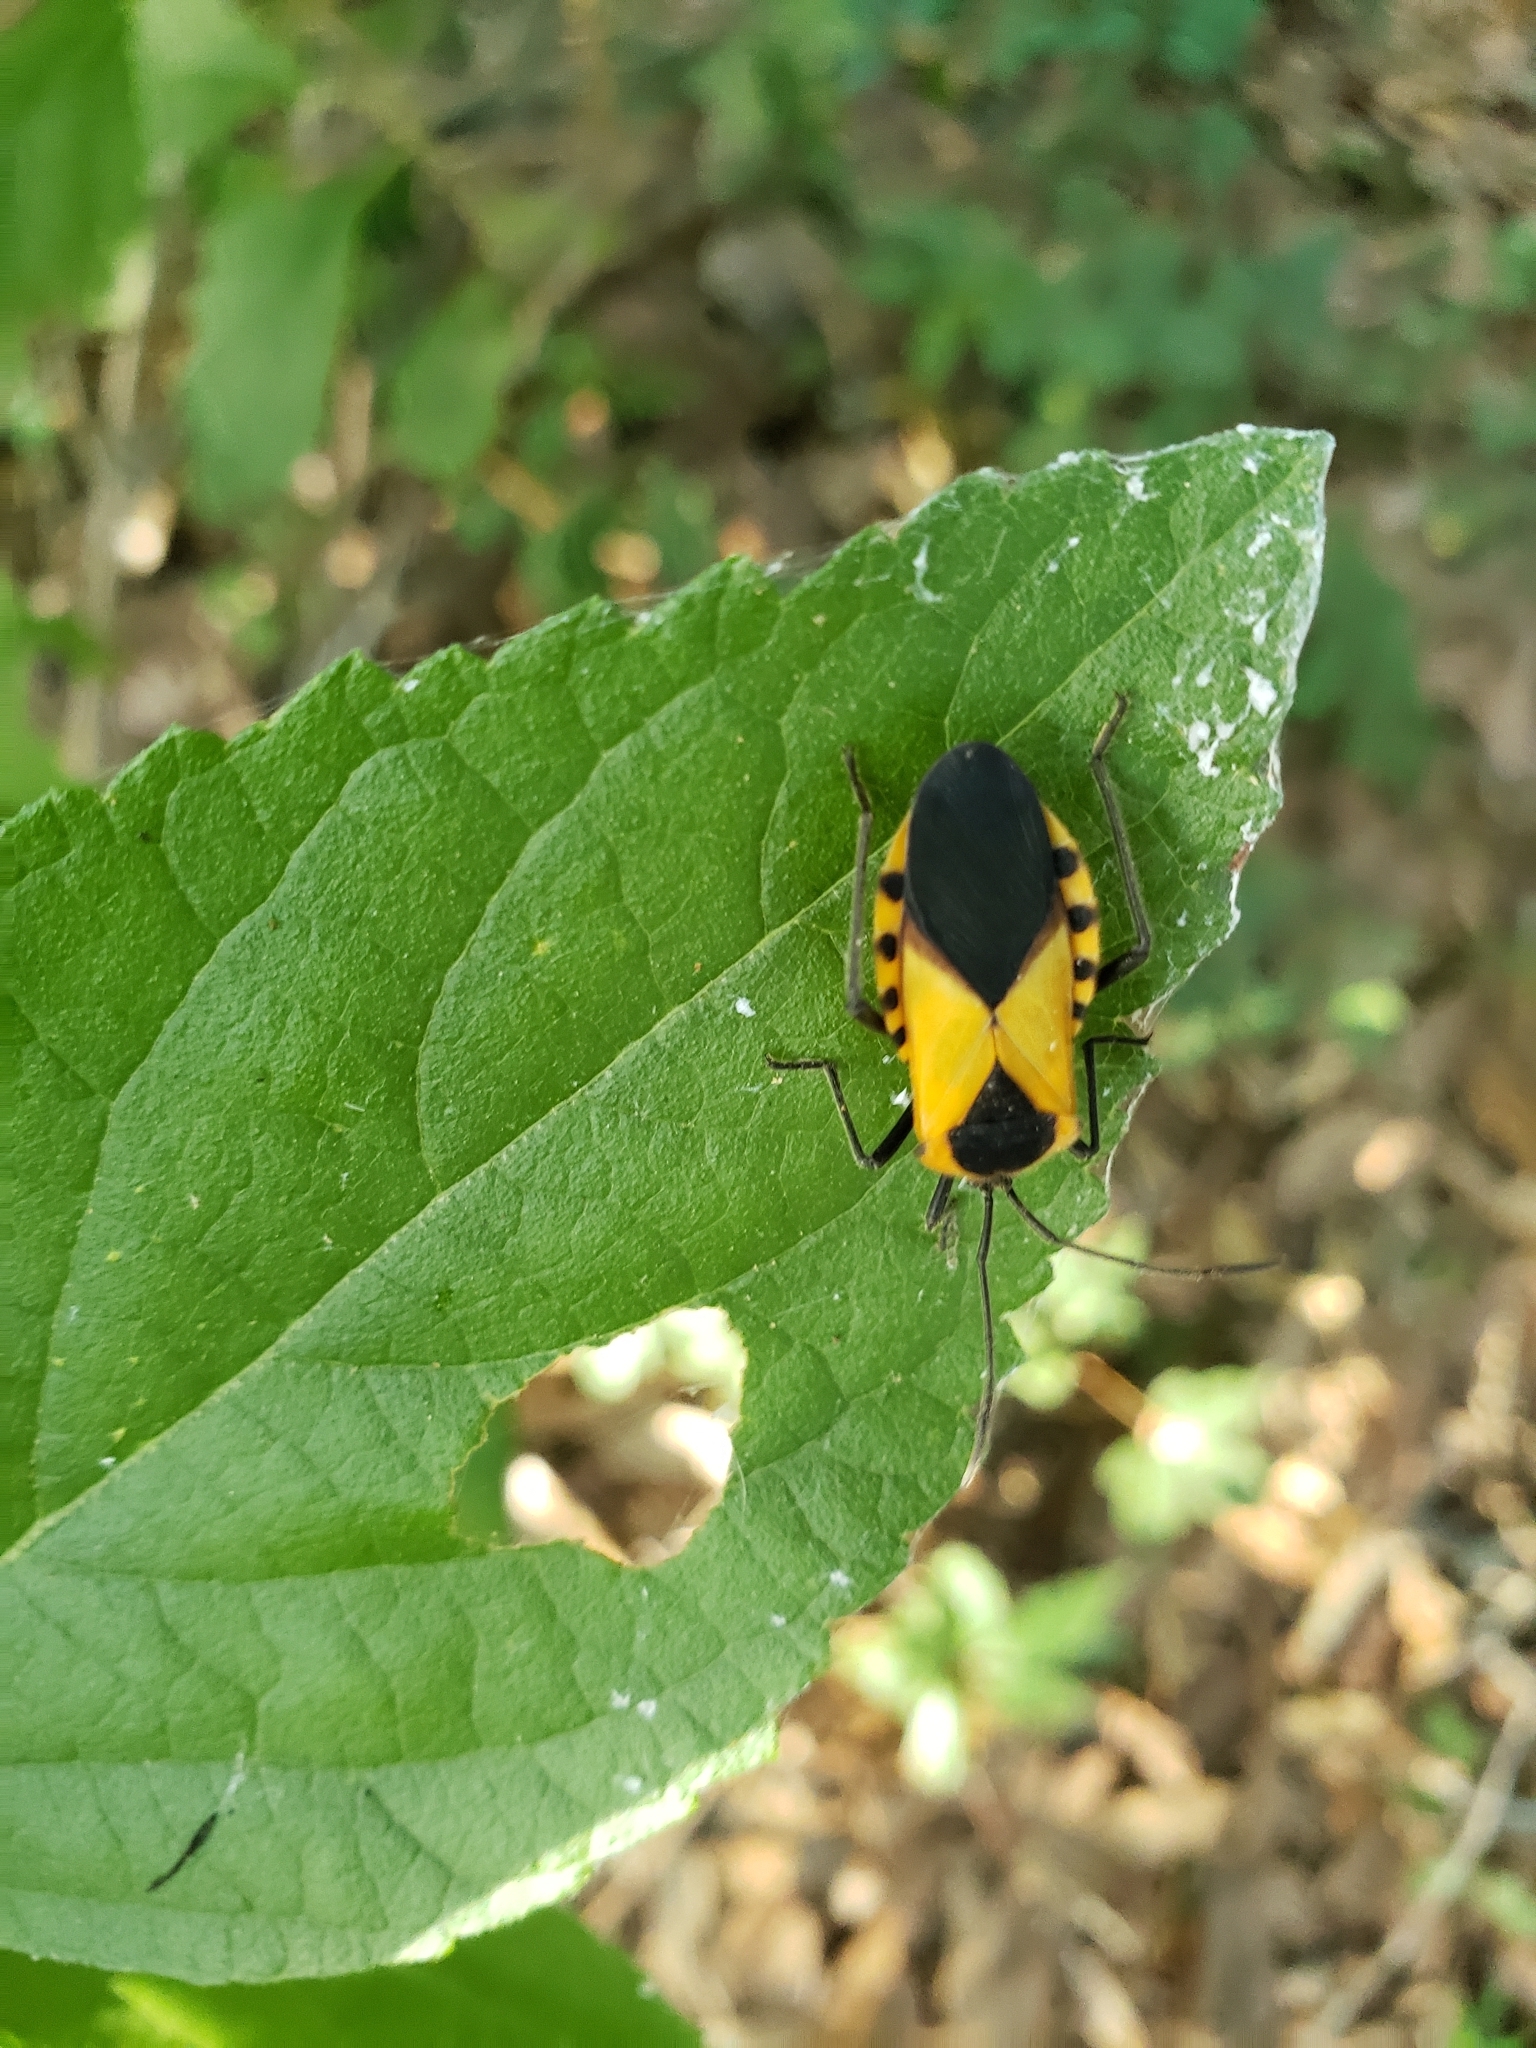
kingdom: Animalia
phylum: Arthropoda
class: Insecta
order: Hemiptera
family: Coreidae
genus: Sephina
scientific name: Sephina gundlachii
